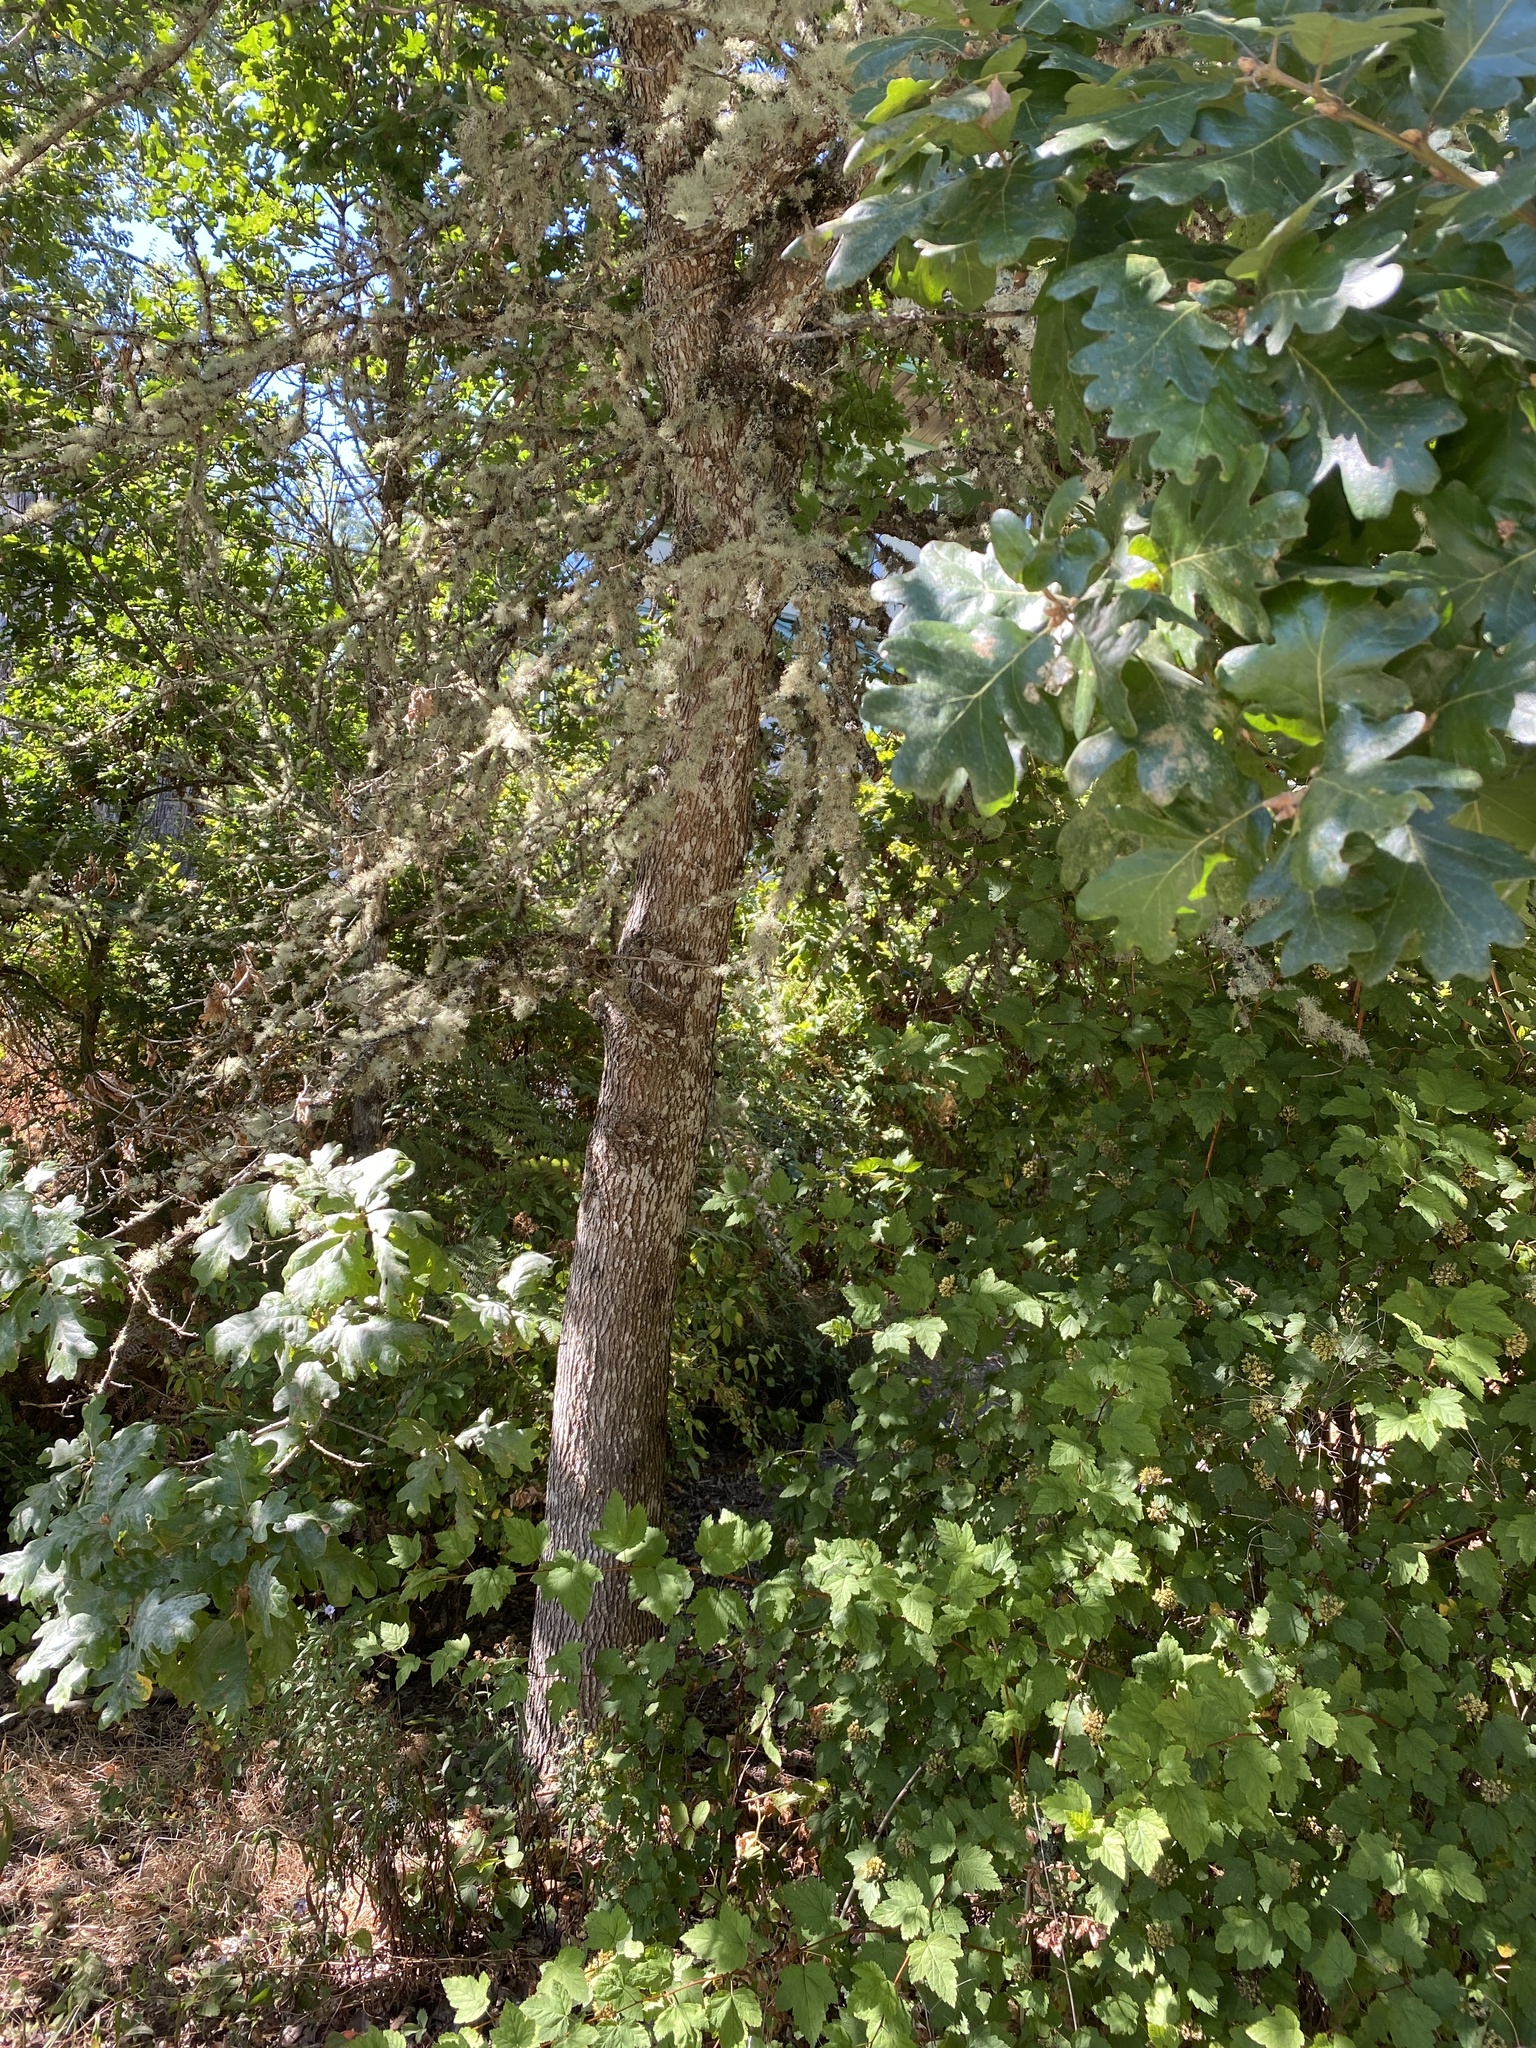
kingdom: Plantae
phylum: Tracheophyta
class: Magnoliopsida
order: Fagales
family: Fagaceae
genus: Quercus
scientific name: Quercus garryana
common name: Garry oak
